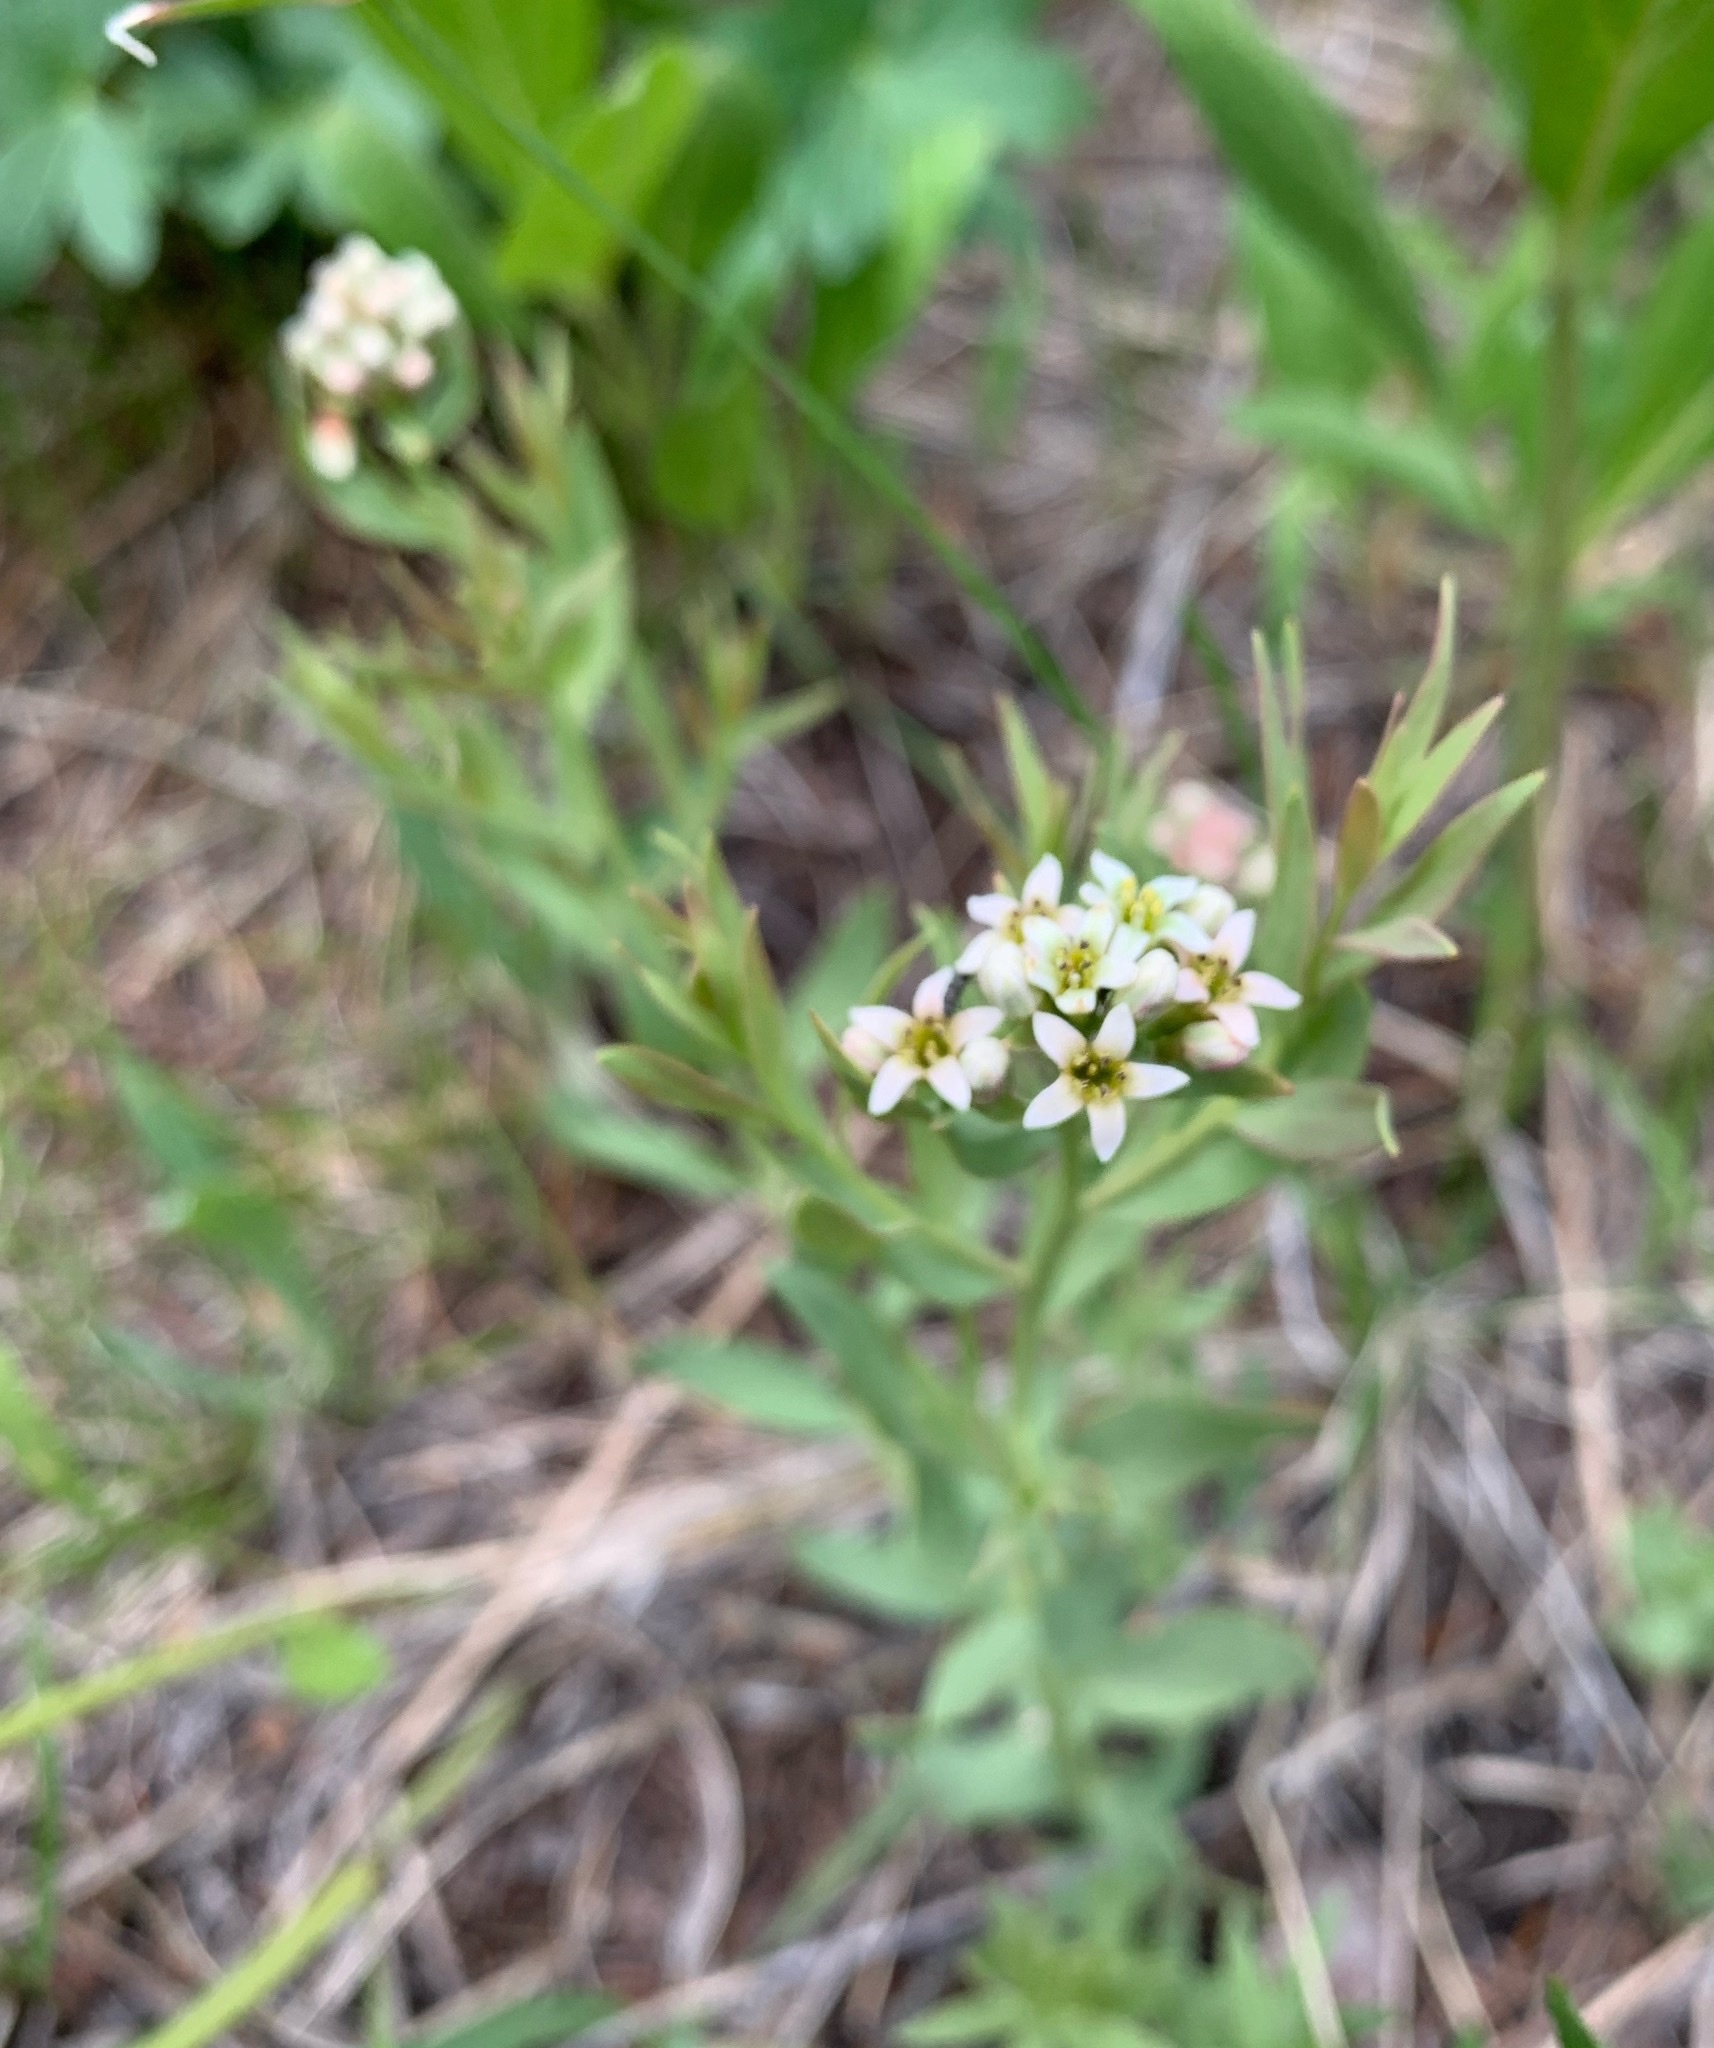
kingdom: Plantae
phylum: Tracheophyta
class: Magnoliopsida
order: Santalales
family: Comandraceae
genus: Comandra
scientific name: Comandra umbellata
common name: Bastard toadflax
